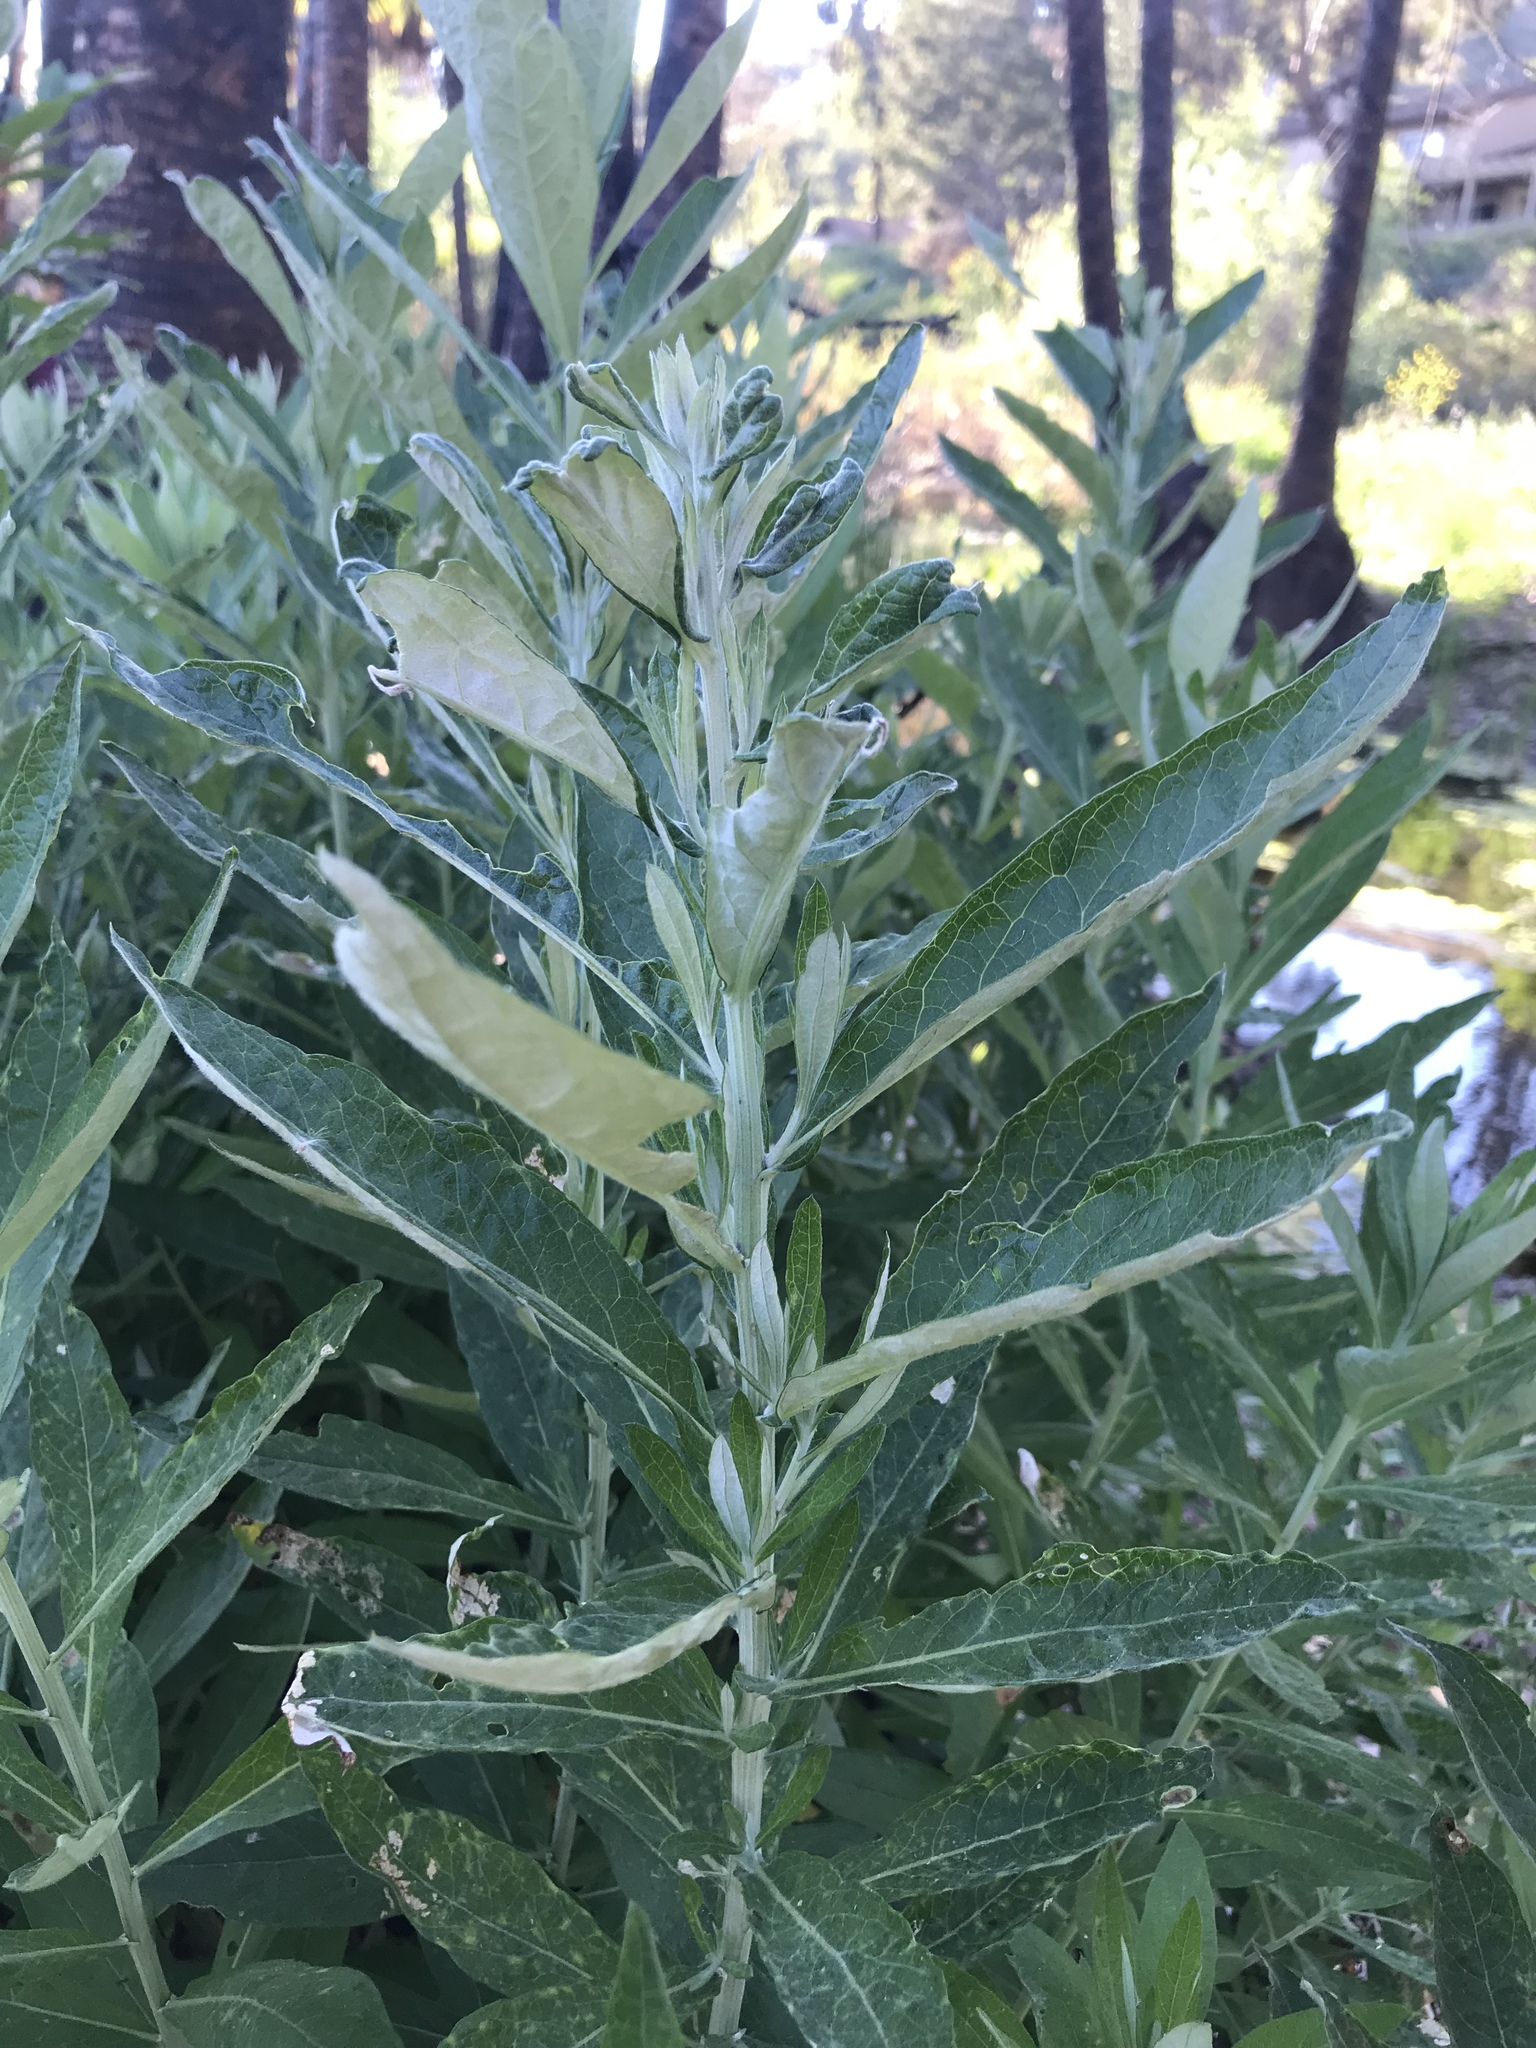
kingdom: Plantae
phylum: Tracheophyta
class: Magnoliopsida
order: Asterales
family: Asteraceae
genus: Artemisia
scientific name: Artemisia douglasiana
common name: Northwest mugwort
